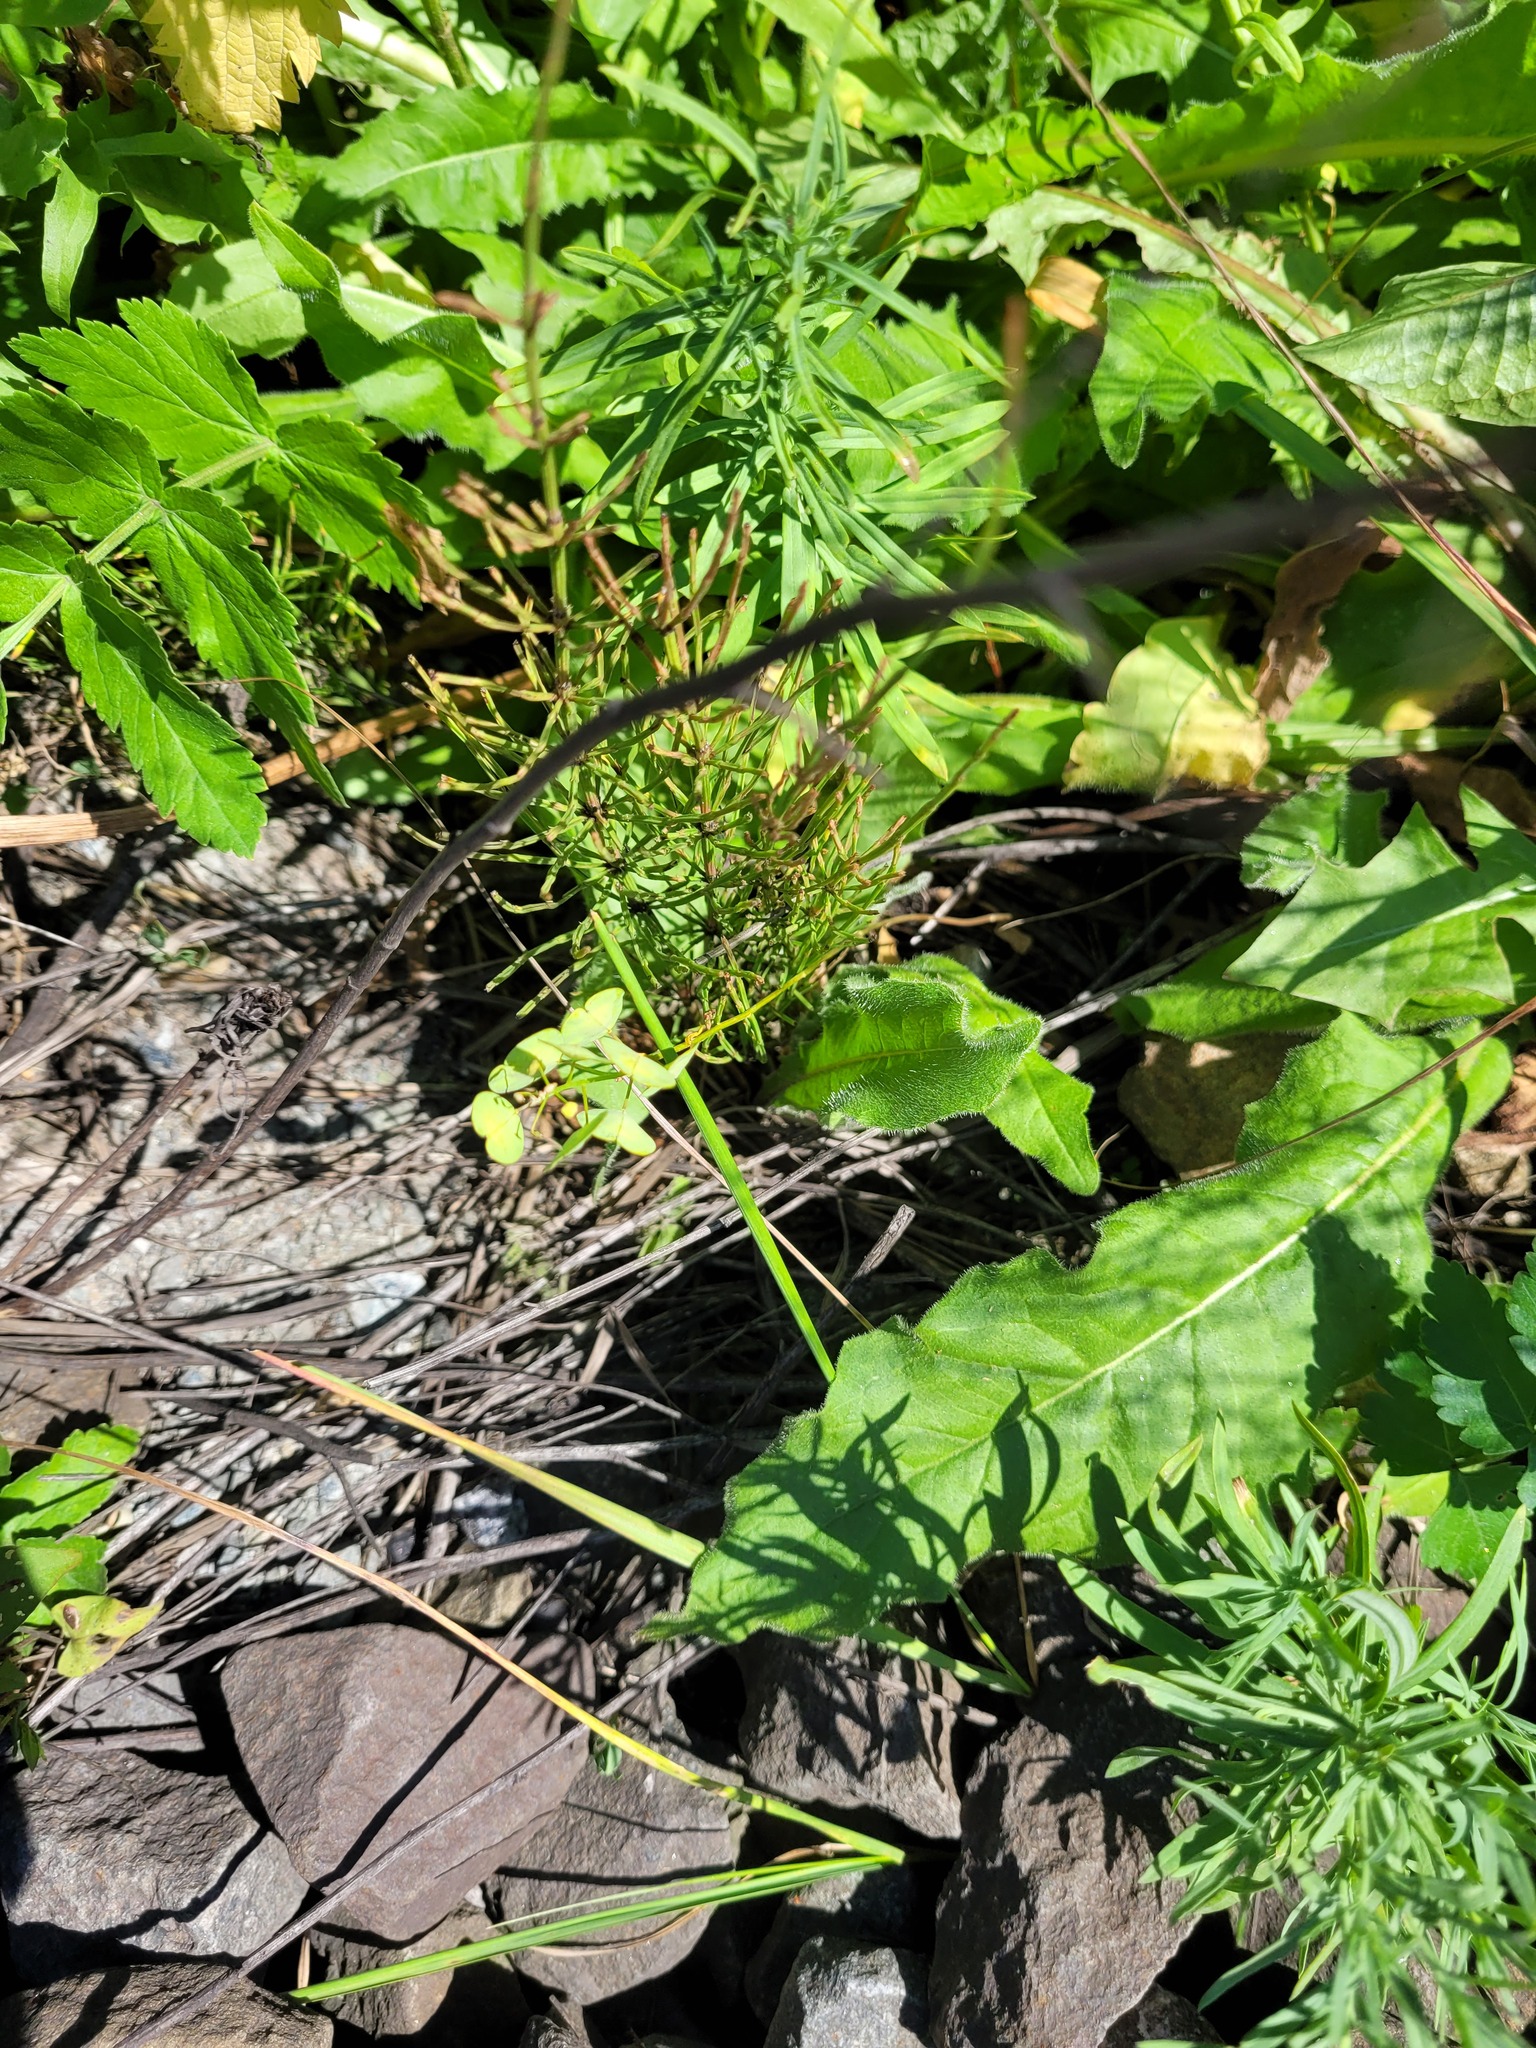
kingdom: Plantae
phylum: Tracheophyta
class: Magnoliopsida
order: Brassicales
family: Brassicaceae
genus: Thlaspi
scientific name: Thlaspi arvense
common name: Field pennycress
